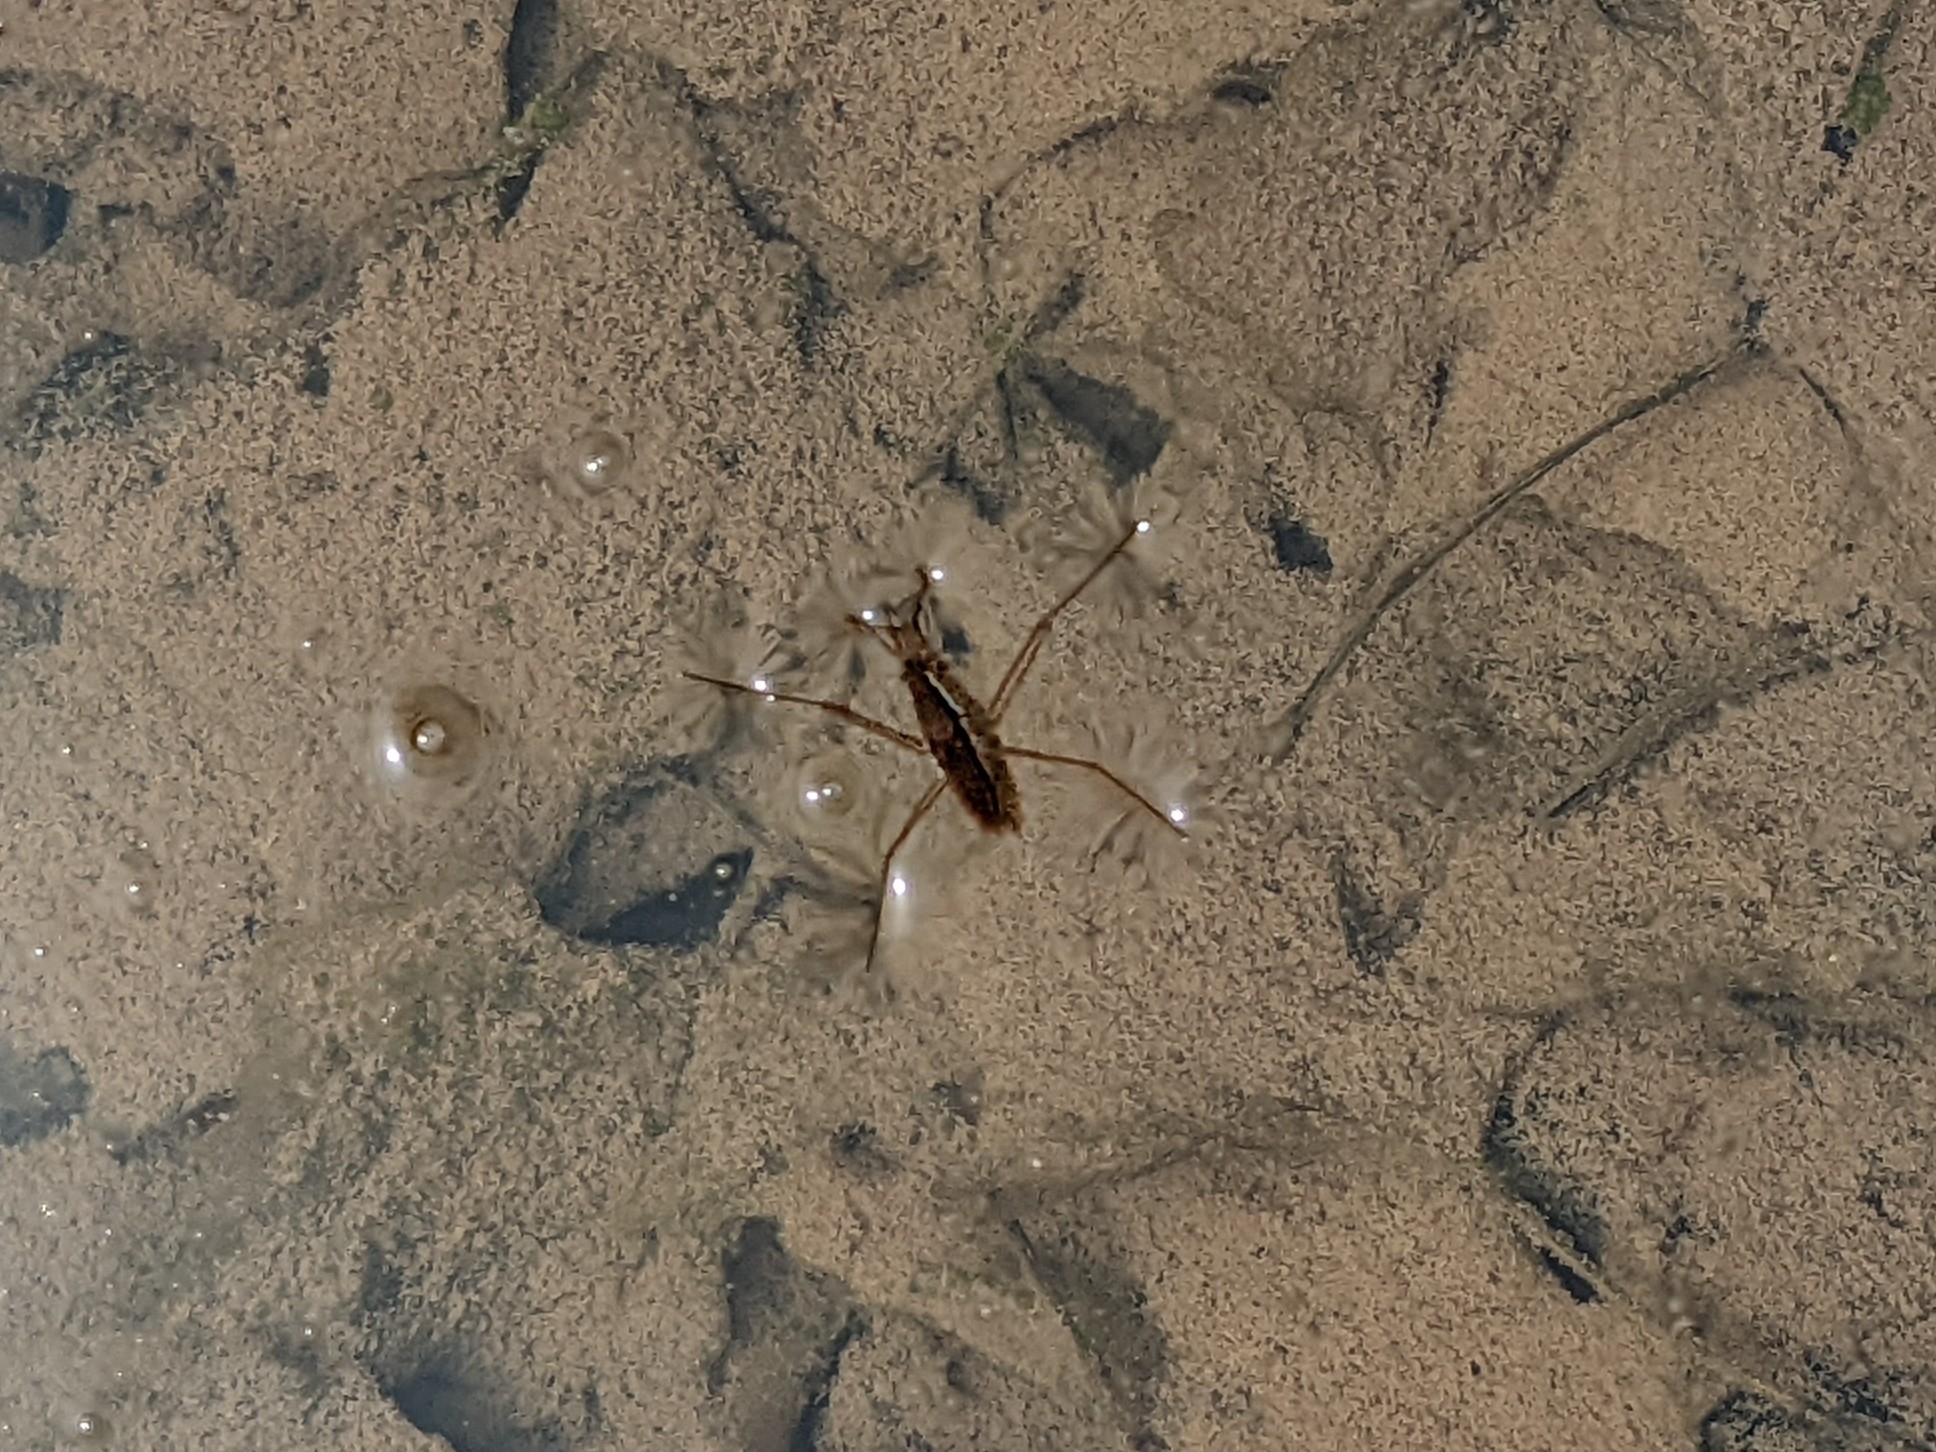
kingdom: Animalia
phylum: Arthropoda
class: Insecta
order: Hemiptera
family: Gerridae
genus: Aquarius
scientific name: Aquarius remigis
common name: Common water strider
